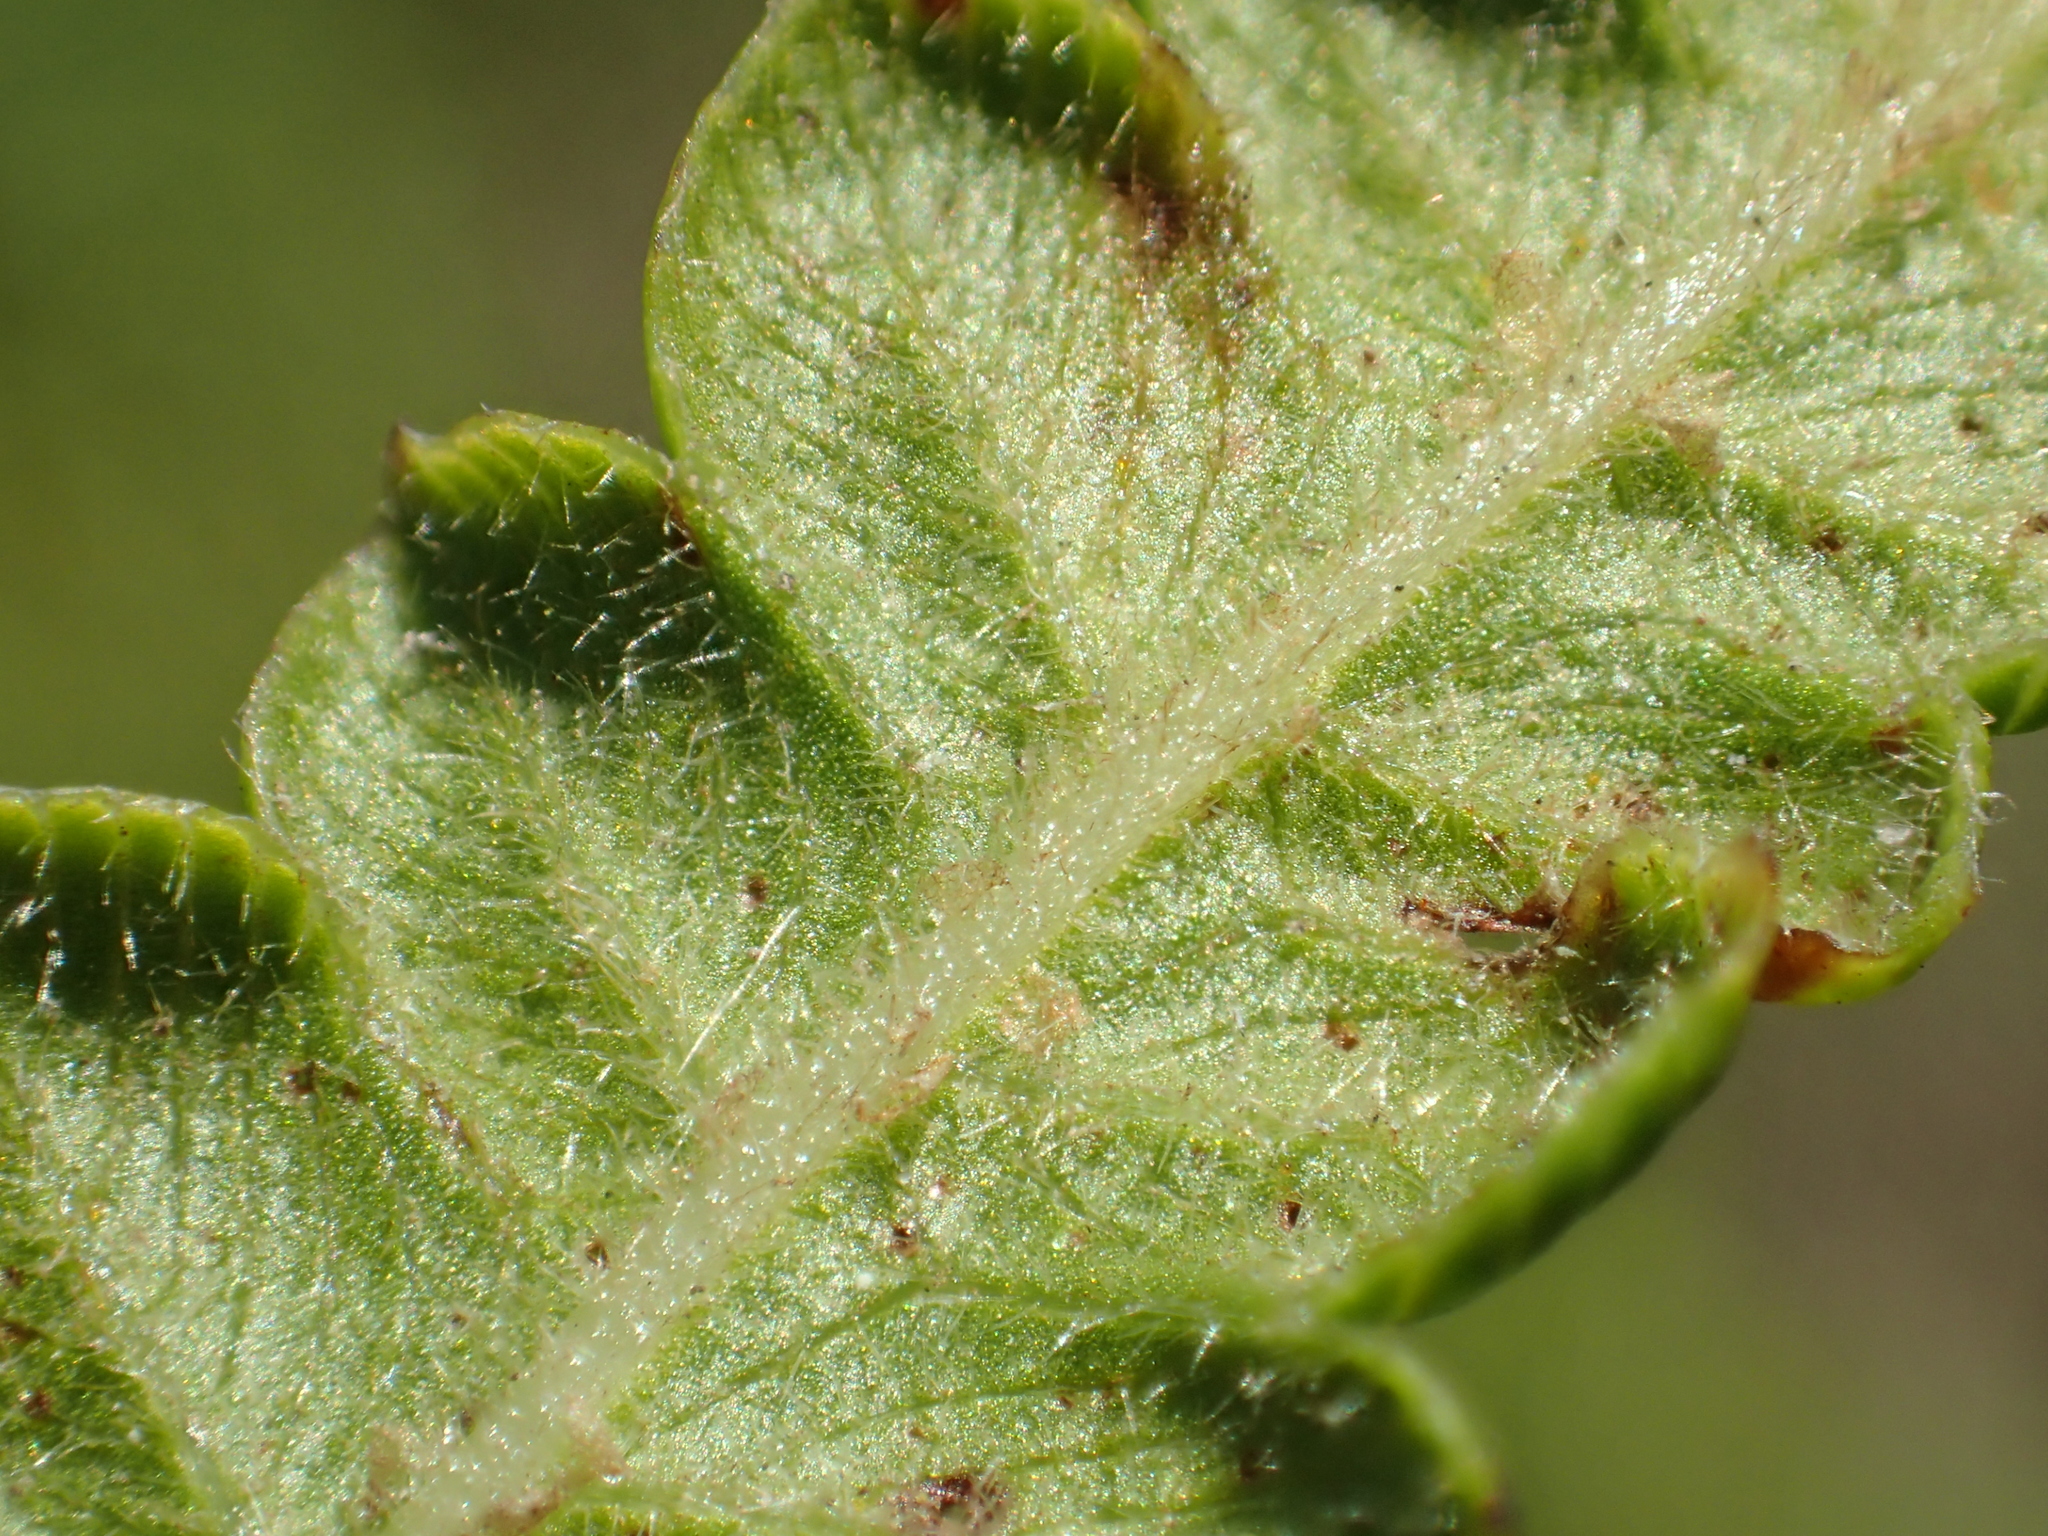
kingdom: Plantae
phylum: Tracheophyta
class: Polypodiopsida
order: Polypodiales
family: Thelypteridaceae
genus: Cyclosorus
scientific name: Cyclosorus interruptus
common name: Neke fern
